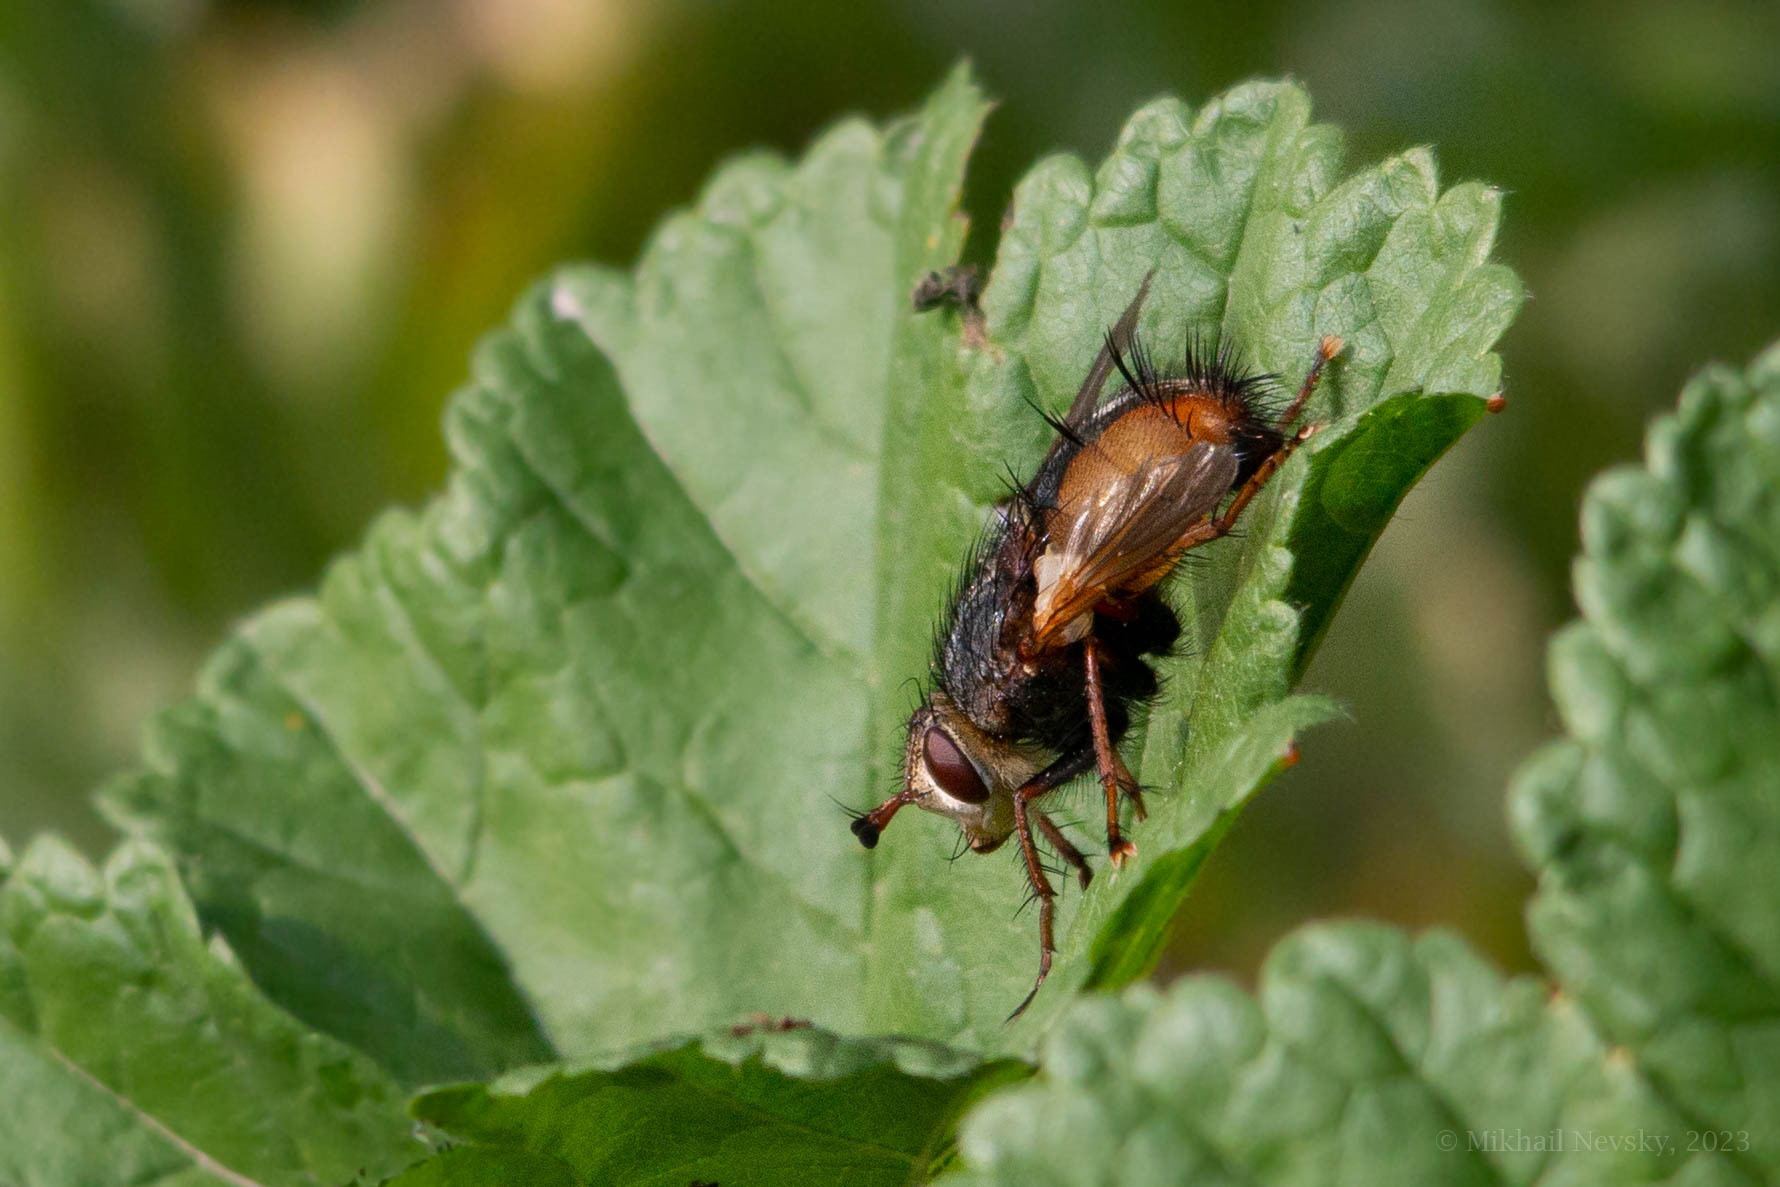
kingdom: Animalia
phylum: Arthropoda
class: Insecta
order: Diptera
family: Tachinidae
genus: Tachina
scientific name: Tachina fera
